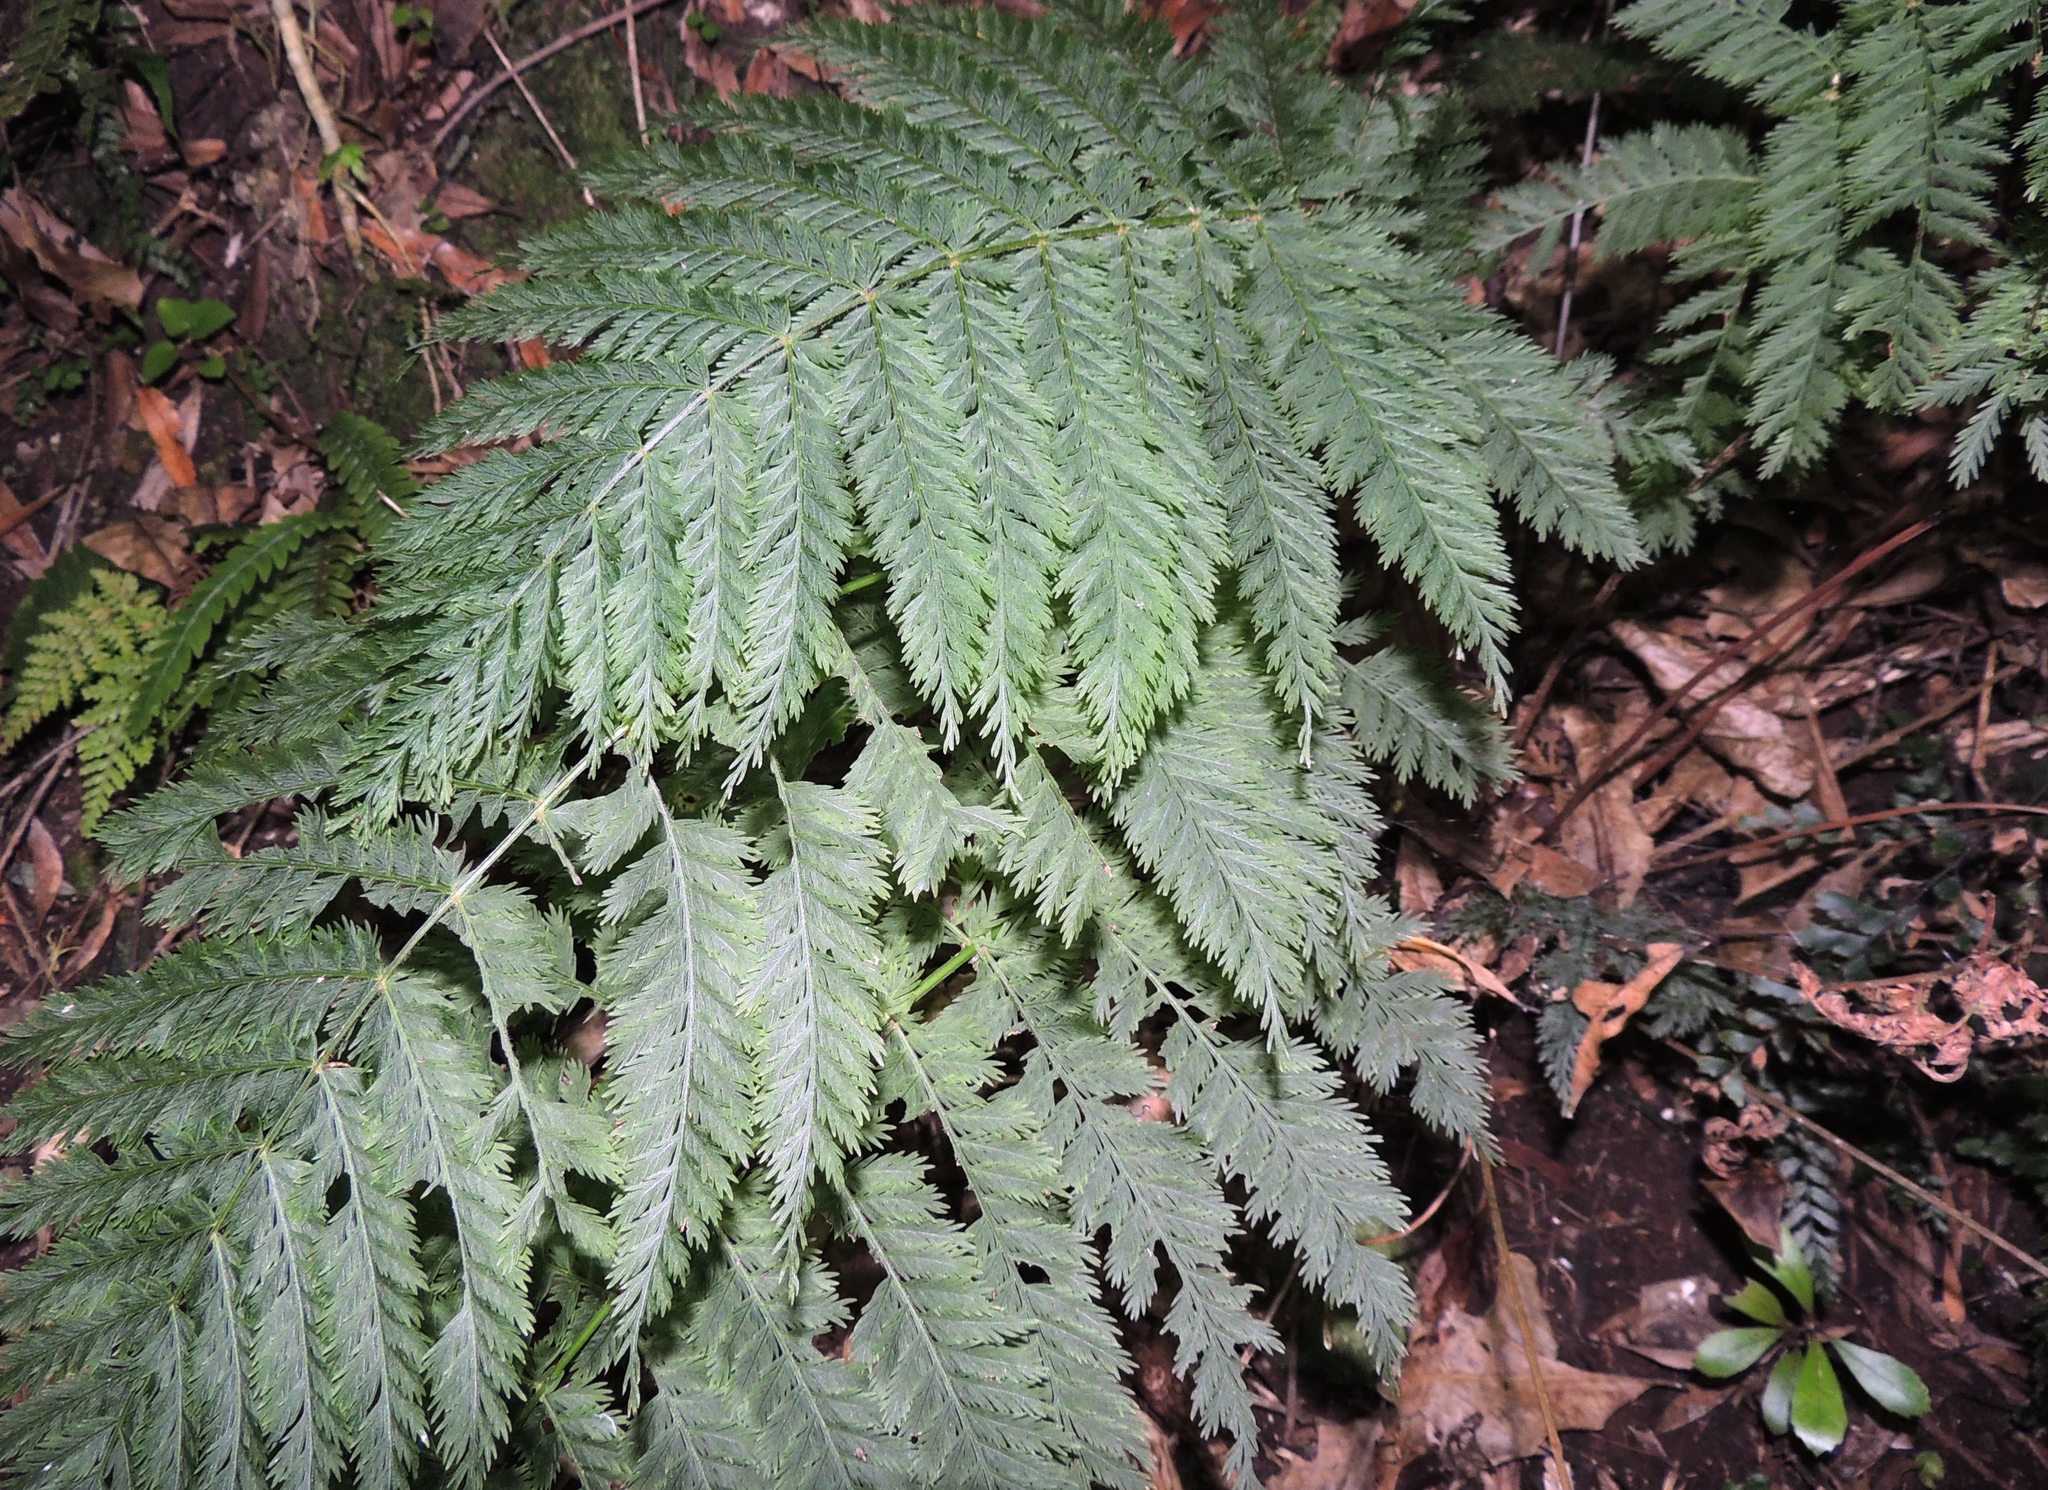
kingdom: Plantae
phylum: Tracheophyta
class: Polypodiopsida
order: Osmundales
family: Osmundaceae
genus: Leptopteris
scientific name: Leptopteris hymenophylloides
